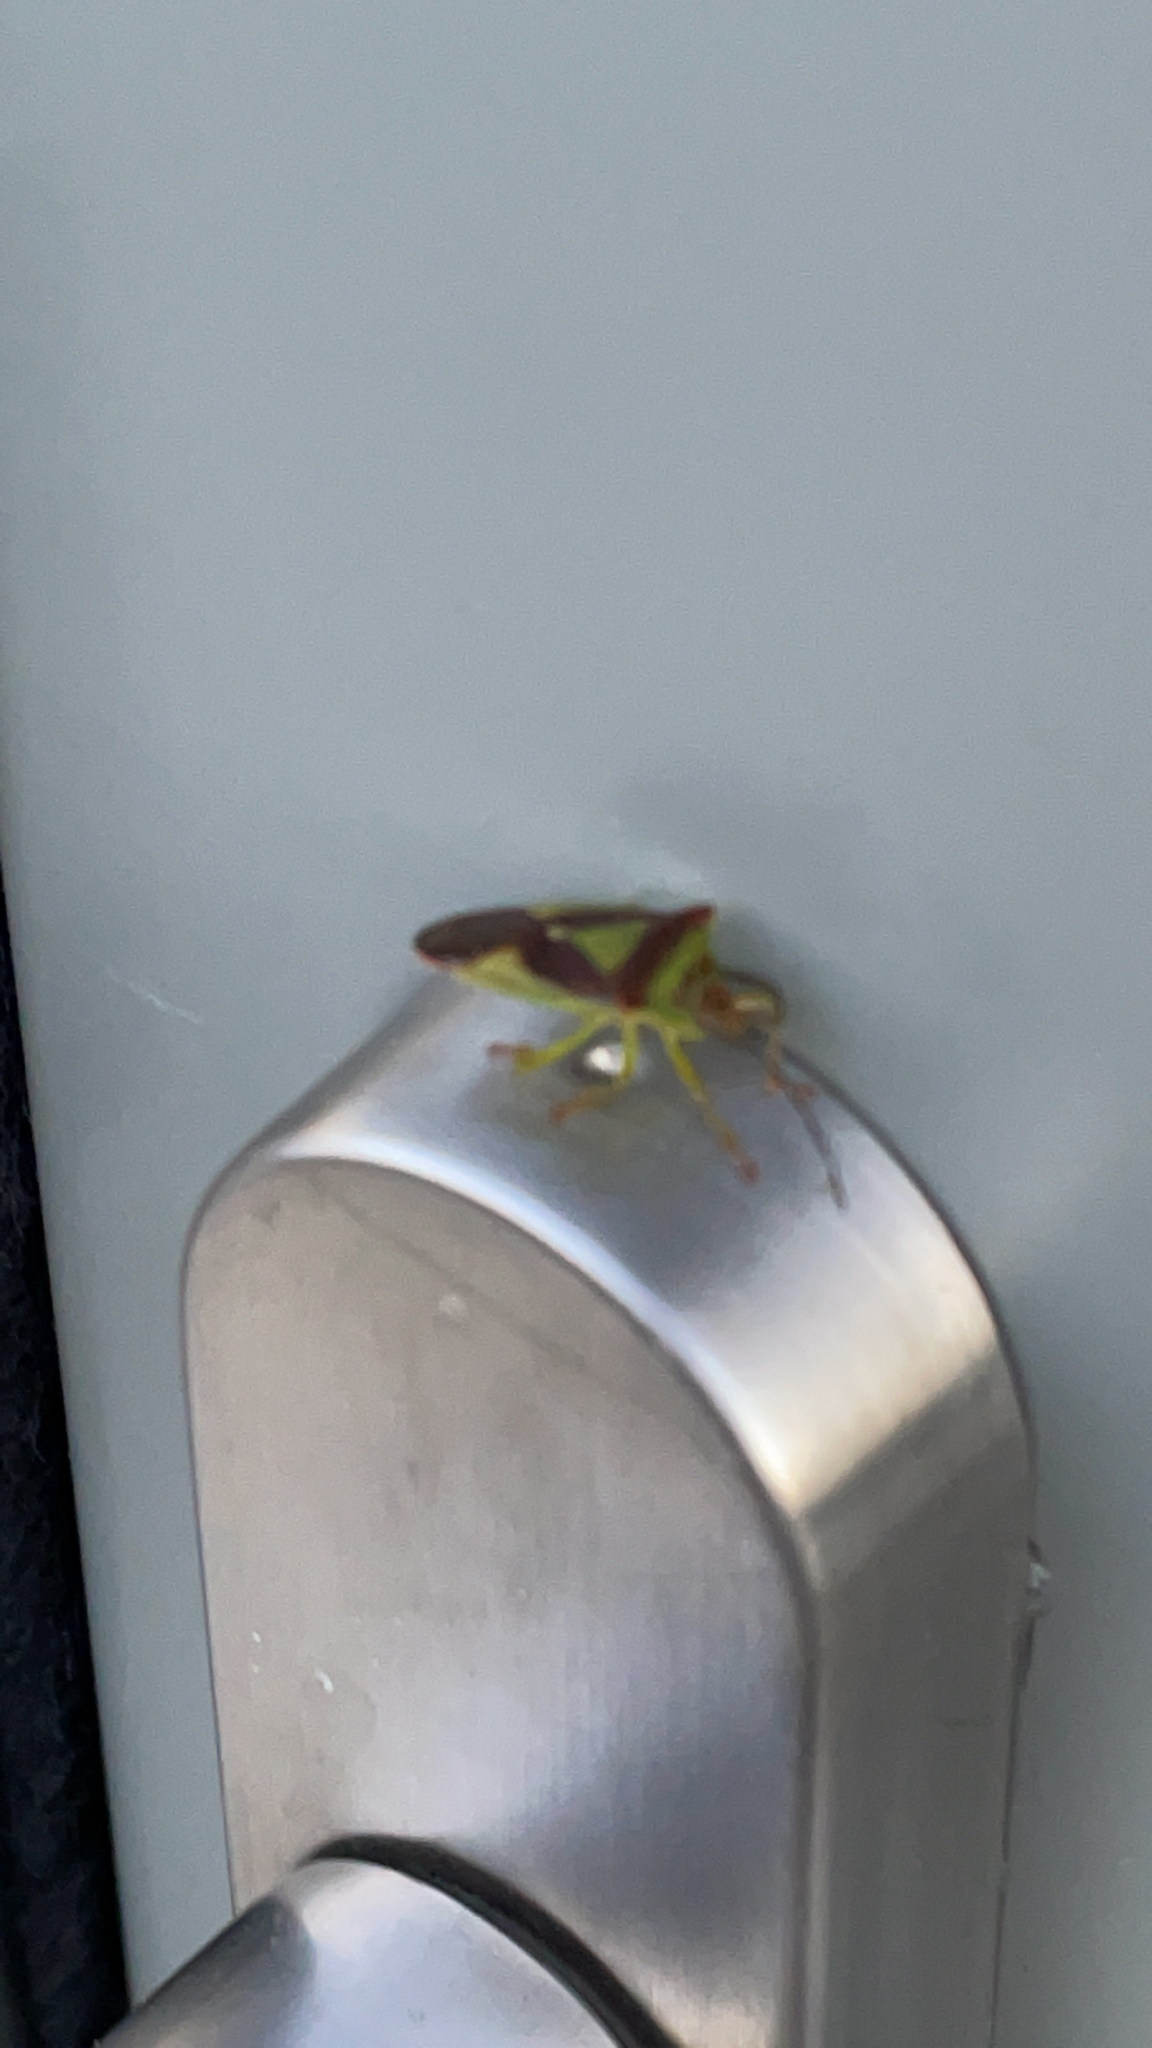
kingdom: Animalia
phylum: Arthropoda
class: Insecta
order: Hemiptera
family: Acanthosomatidae
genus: Acanthosoma
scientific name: Acanthosoma haemorrhoidale
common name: Hawthorn shieldbug
